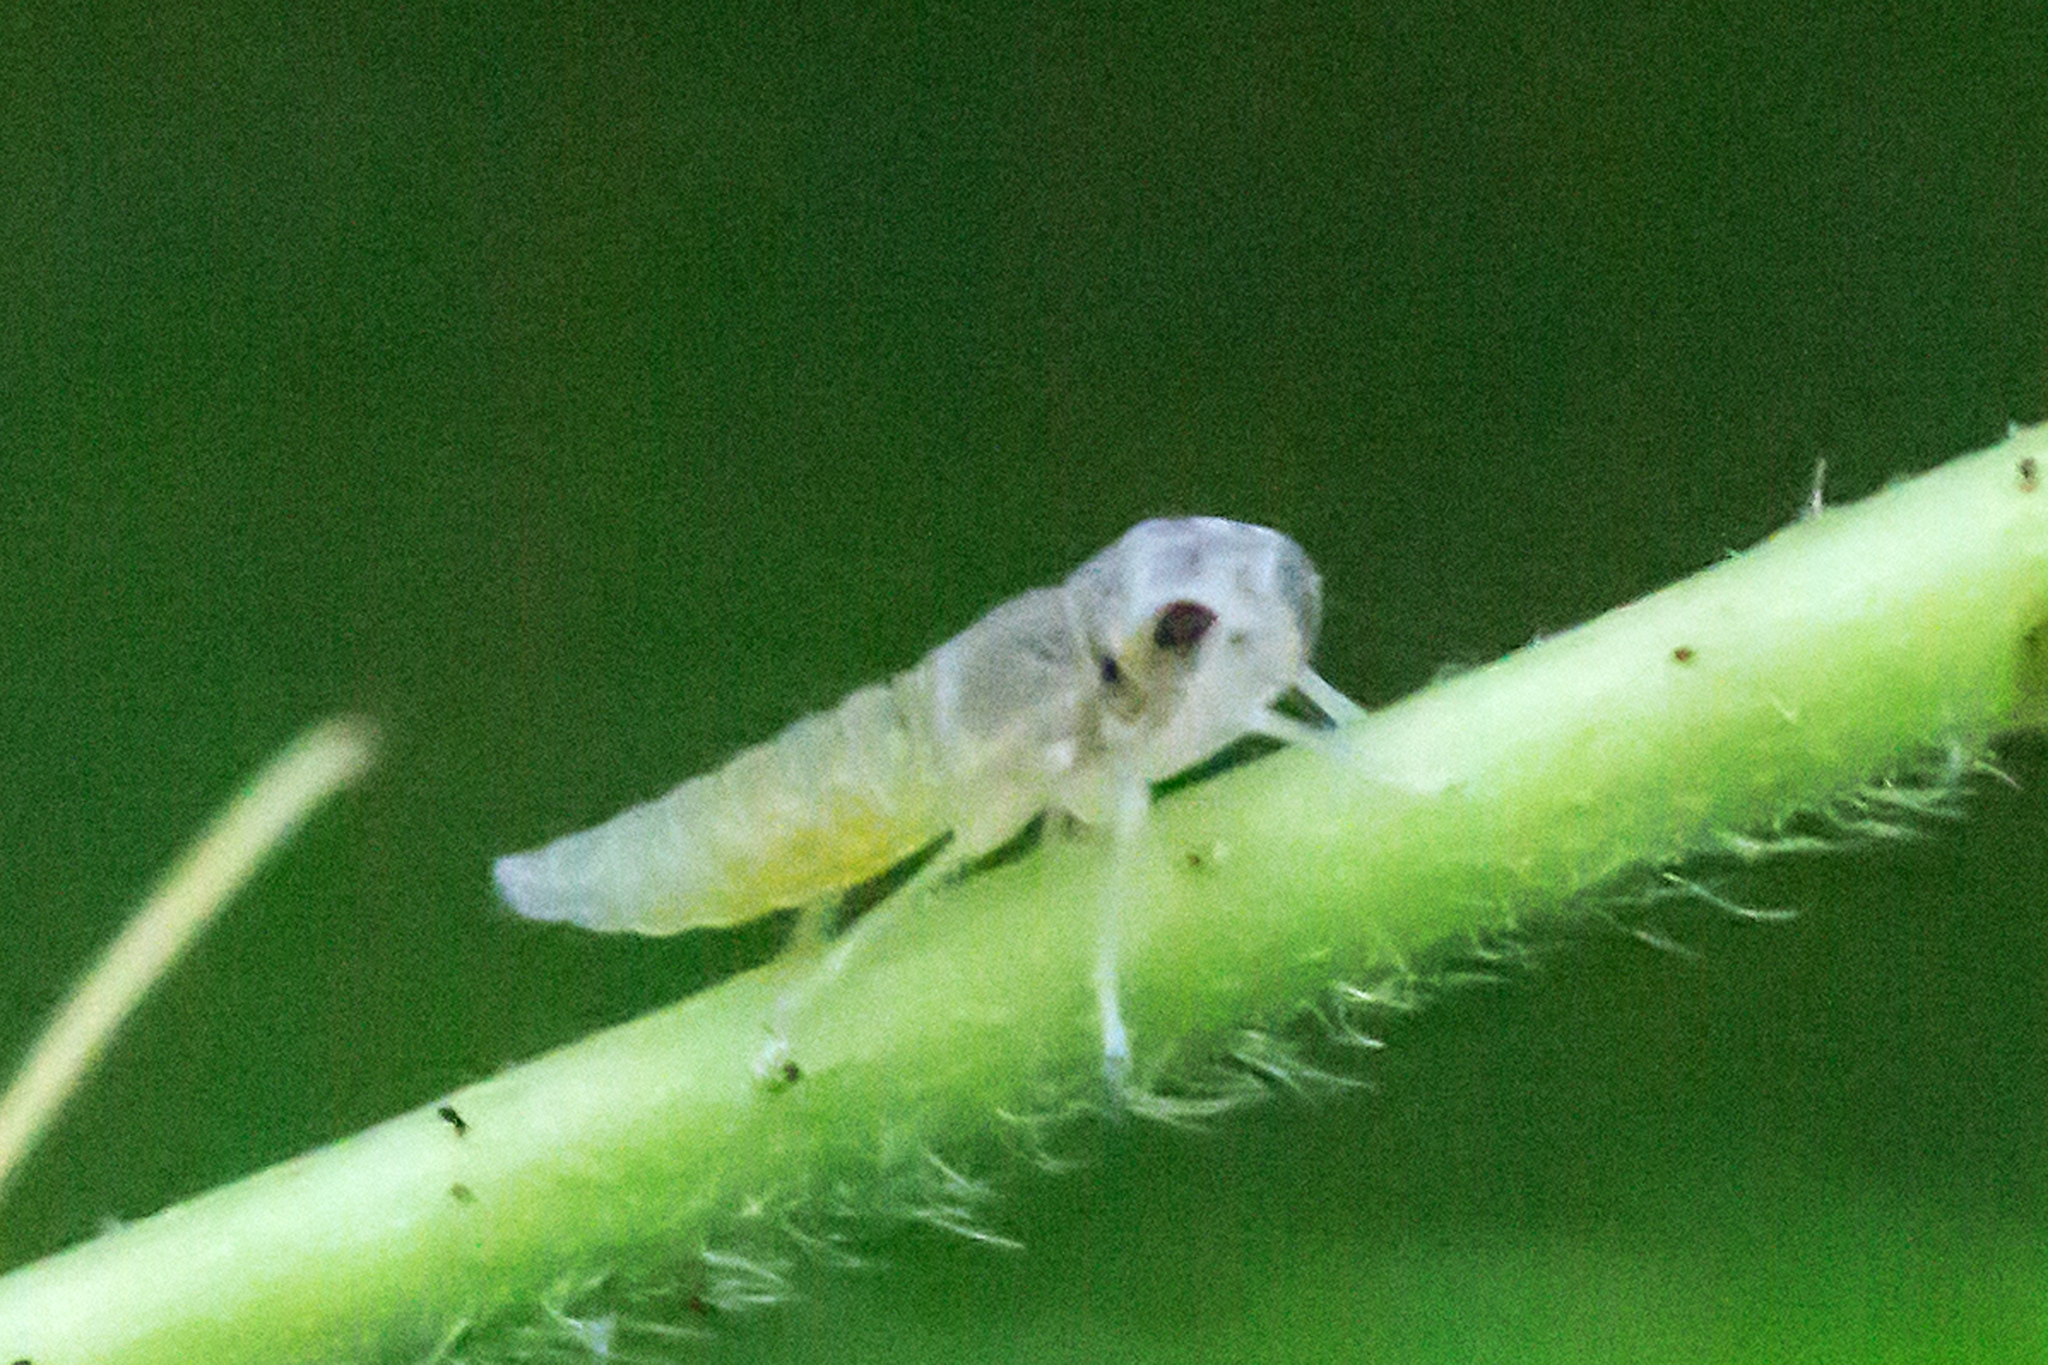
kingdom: Animalia
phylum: Arthropoda
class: Insecta
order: Hemiptera
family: Cicadellidae
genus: Oncometopia
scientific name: Oncometopia orbona
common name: Broad-headed sharpshooter
